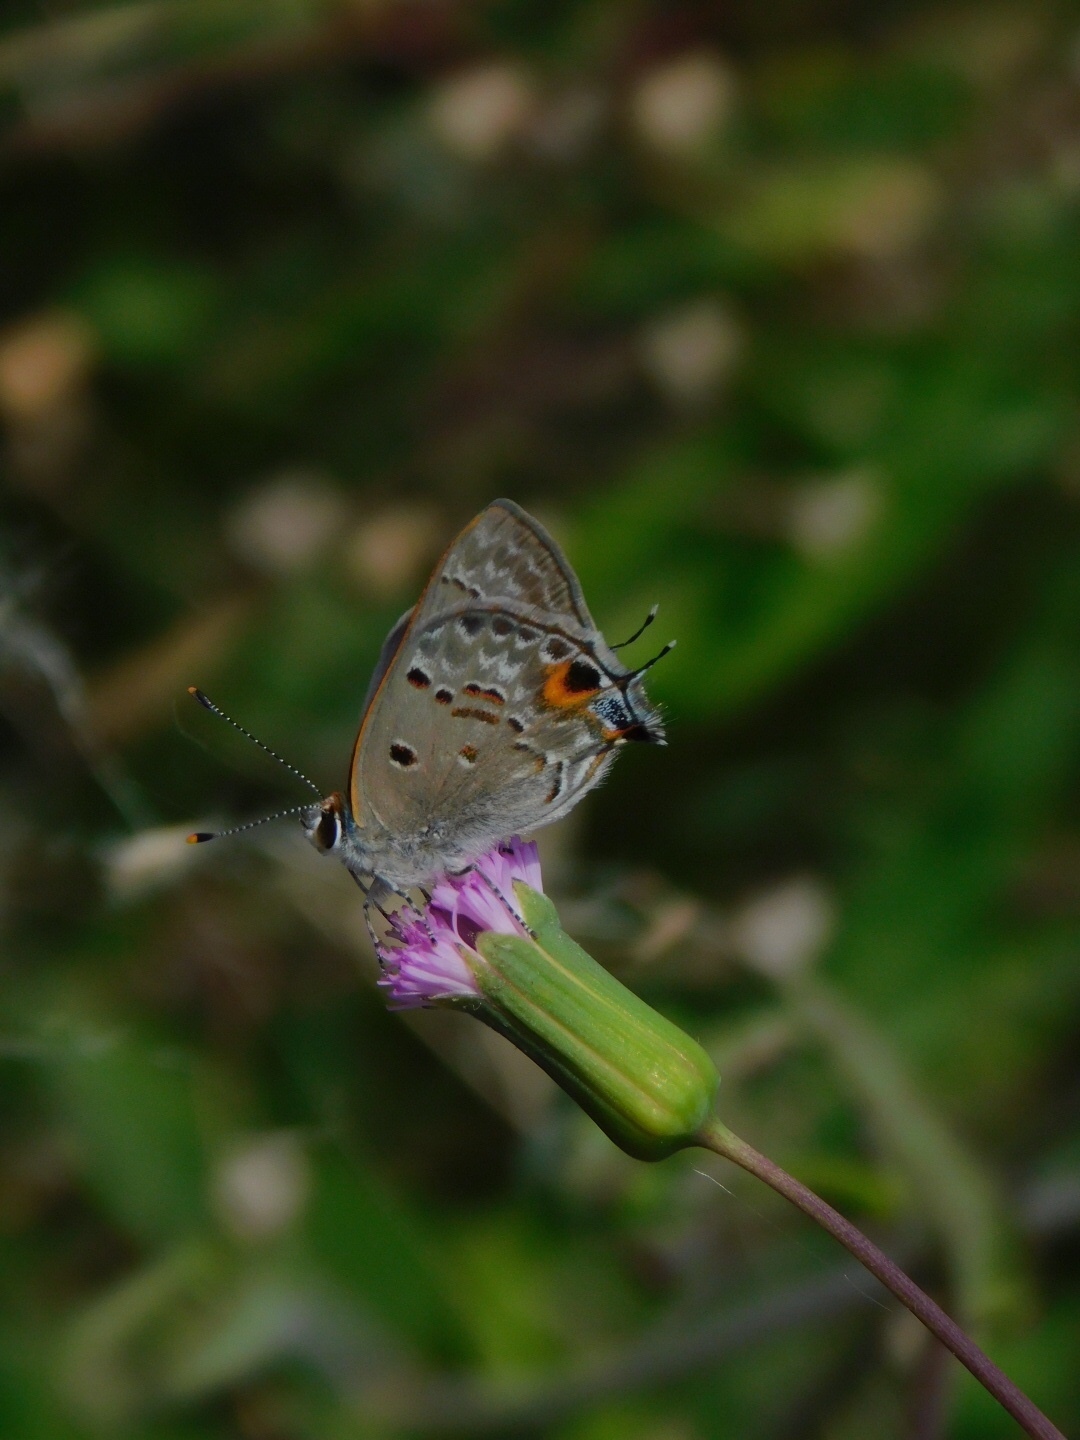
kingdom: Animalia
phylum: Arthropoda
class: Insecta
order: Lepidoptera
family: Lycaenidae
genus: Callicista
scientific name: Callicista columella
